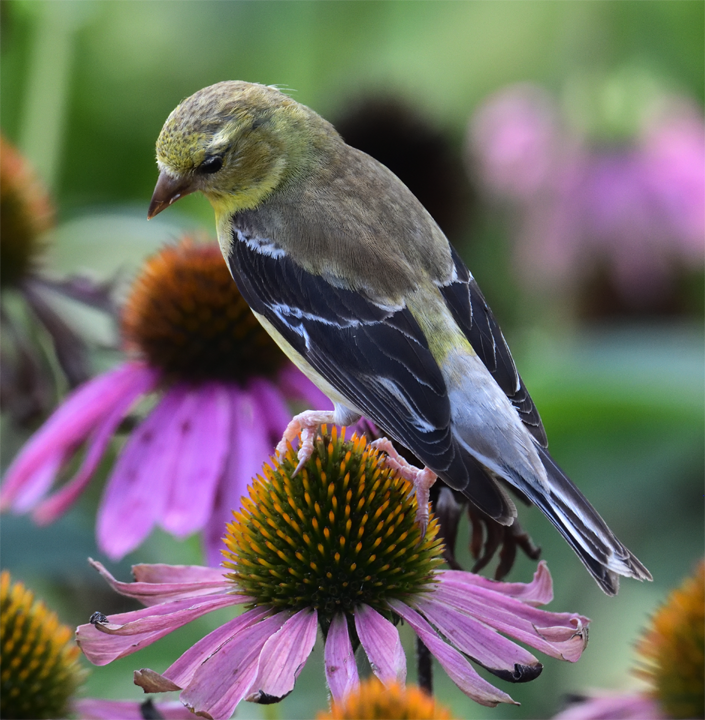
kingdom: Animalia
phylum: Chordata
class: Aves
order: Passeriformes
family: Fringillidae
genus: Spinus
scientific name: Spinus tristis
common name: American goldfinch
